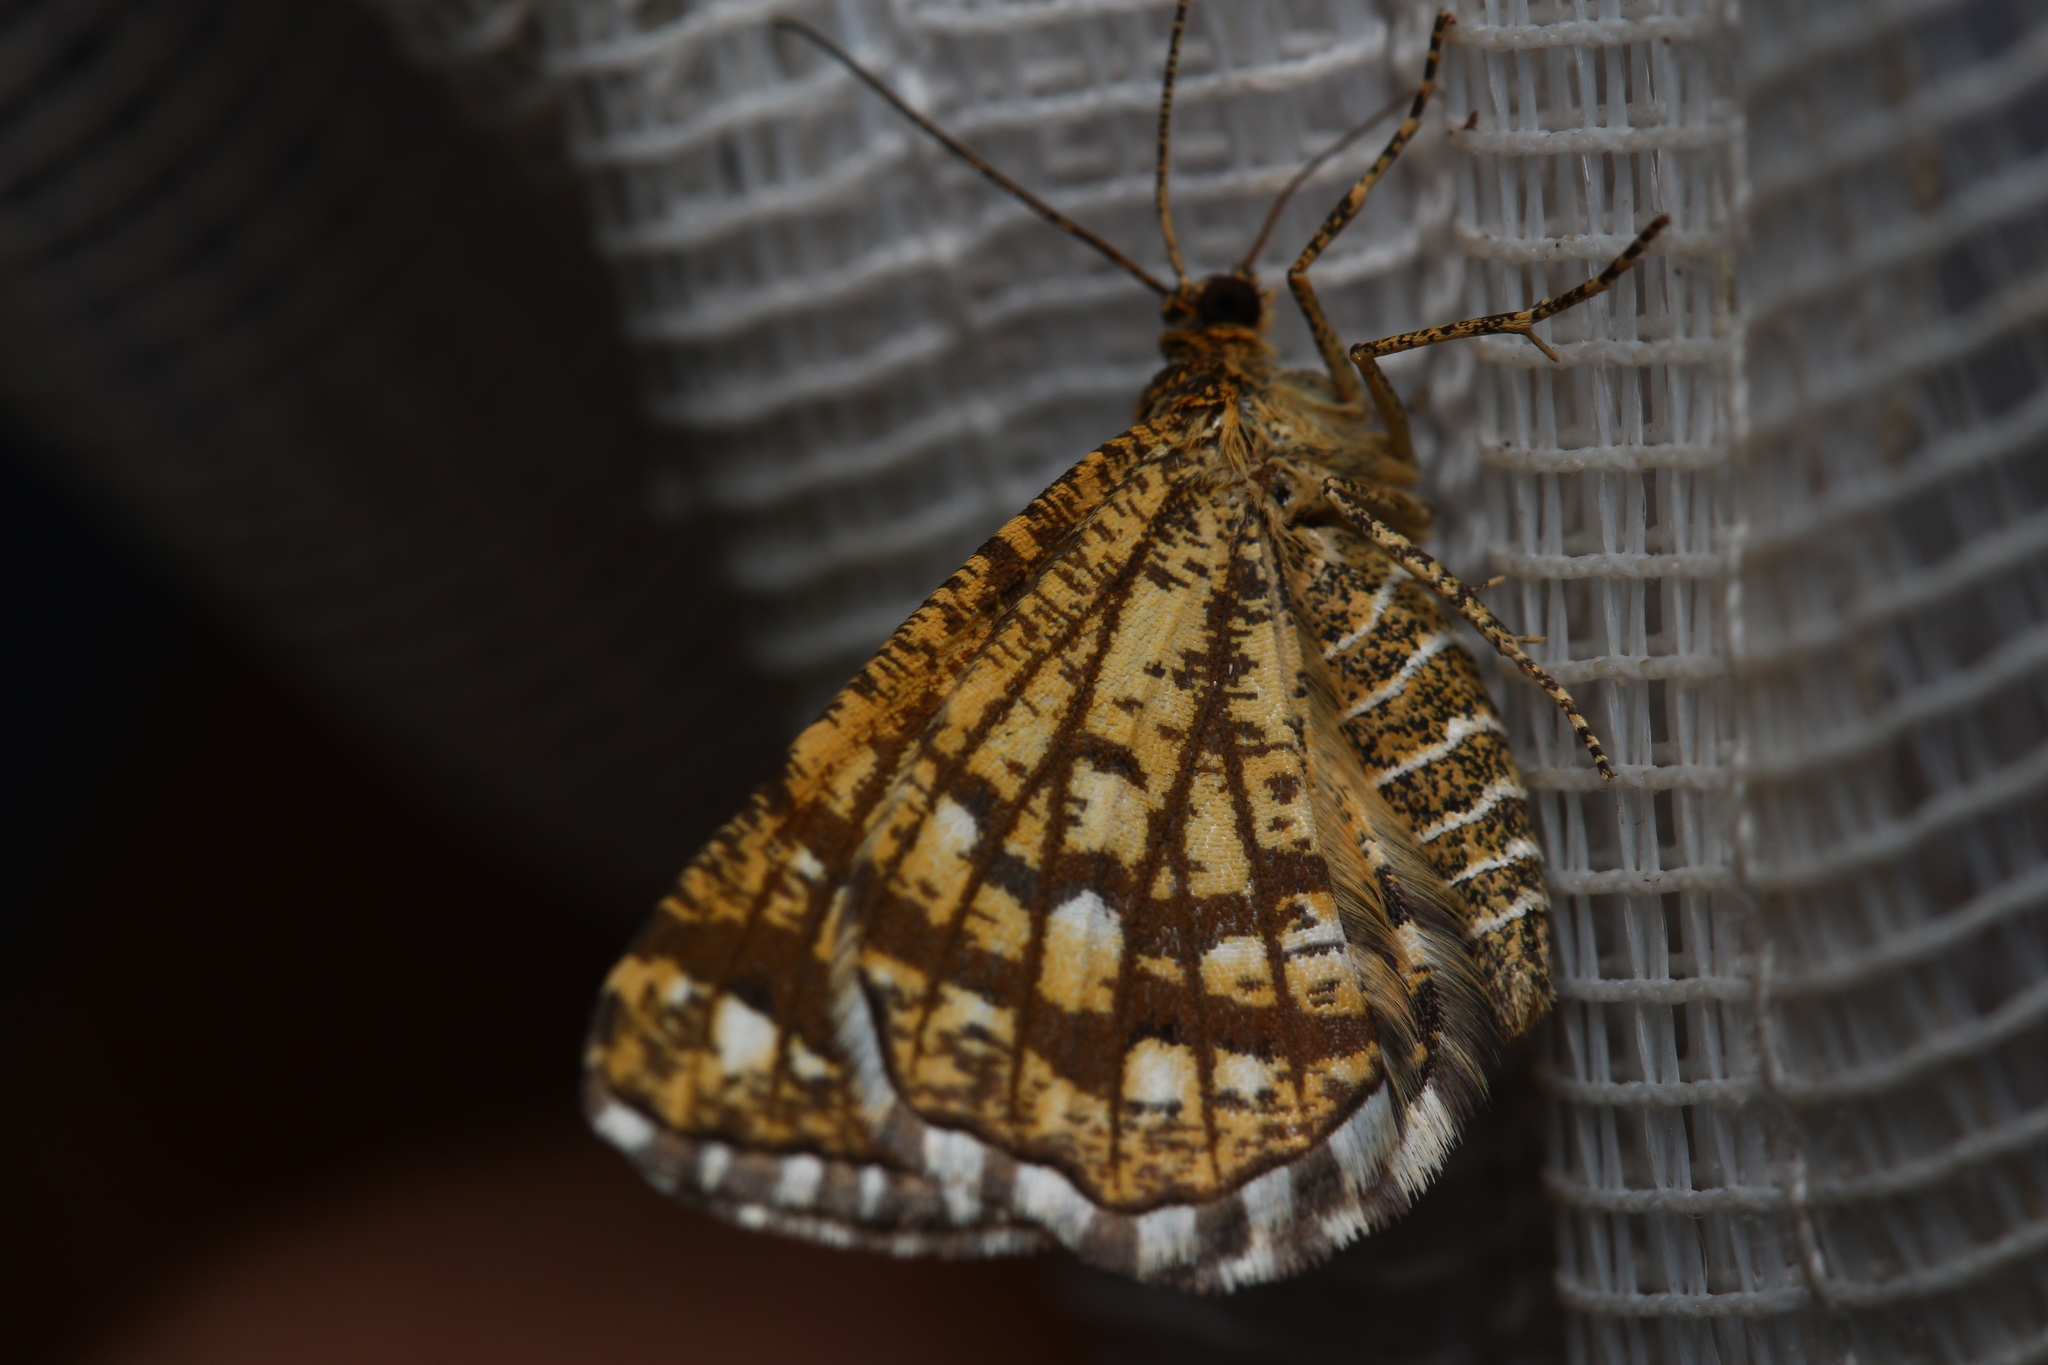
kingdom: Animalia
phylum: Arthropoda
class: Insecta
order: Lepidoptera
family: Geometridae
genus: Chiasmia
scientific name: Chiasmia clathrata
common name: Latticed heath
